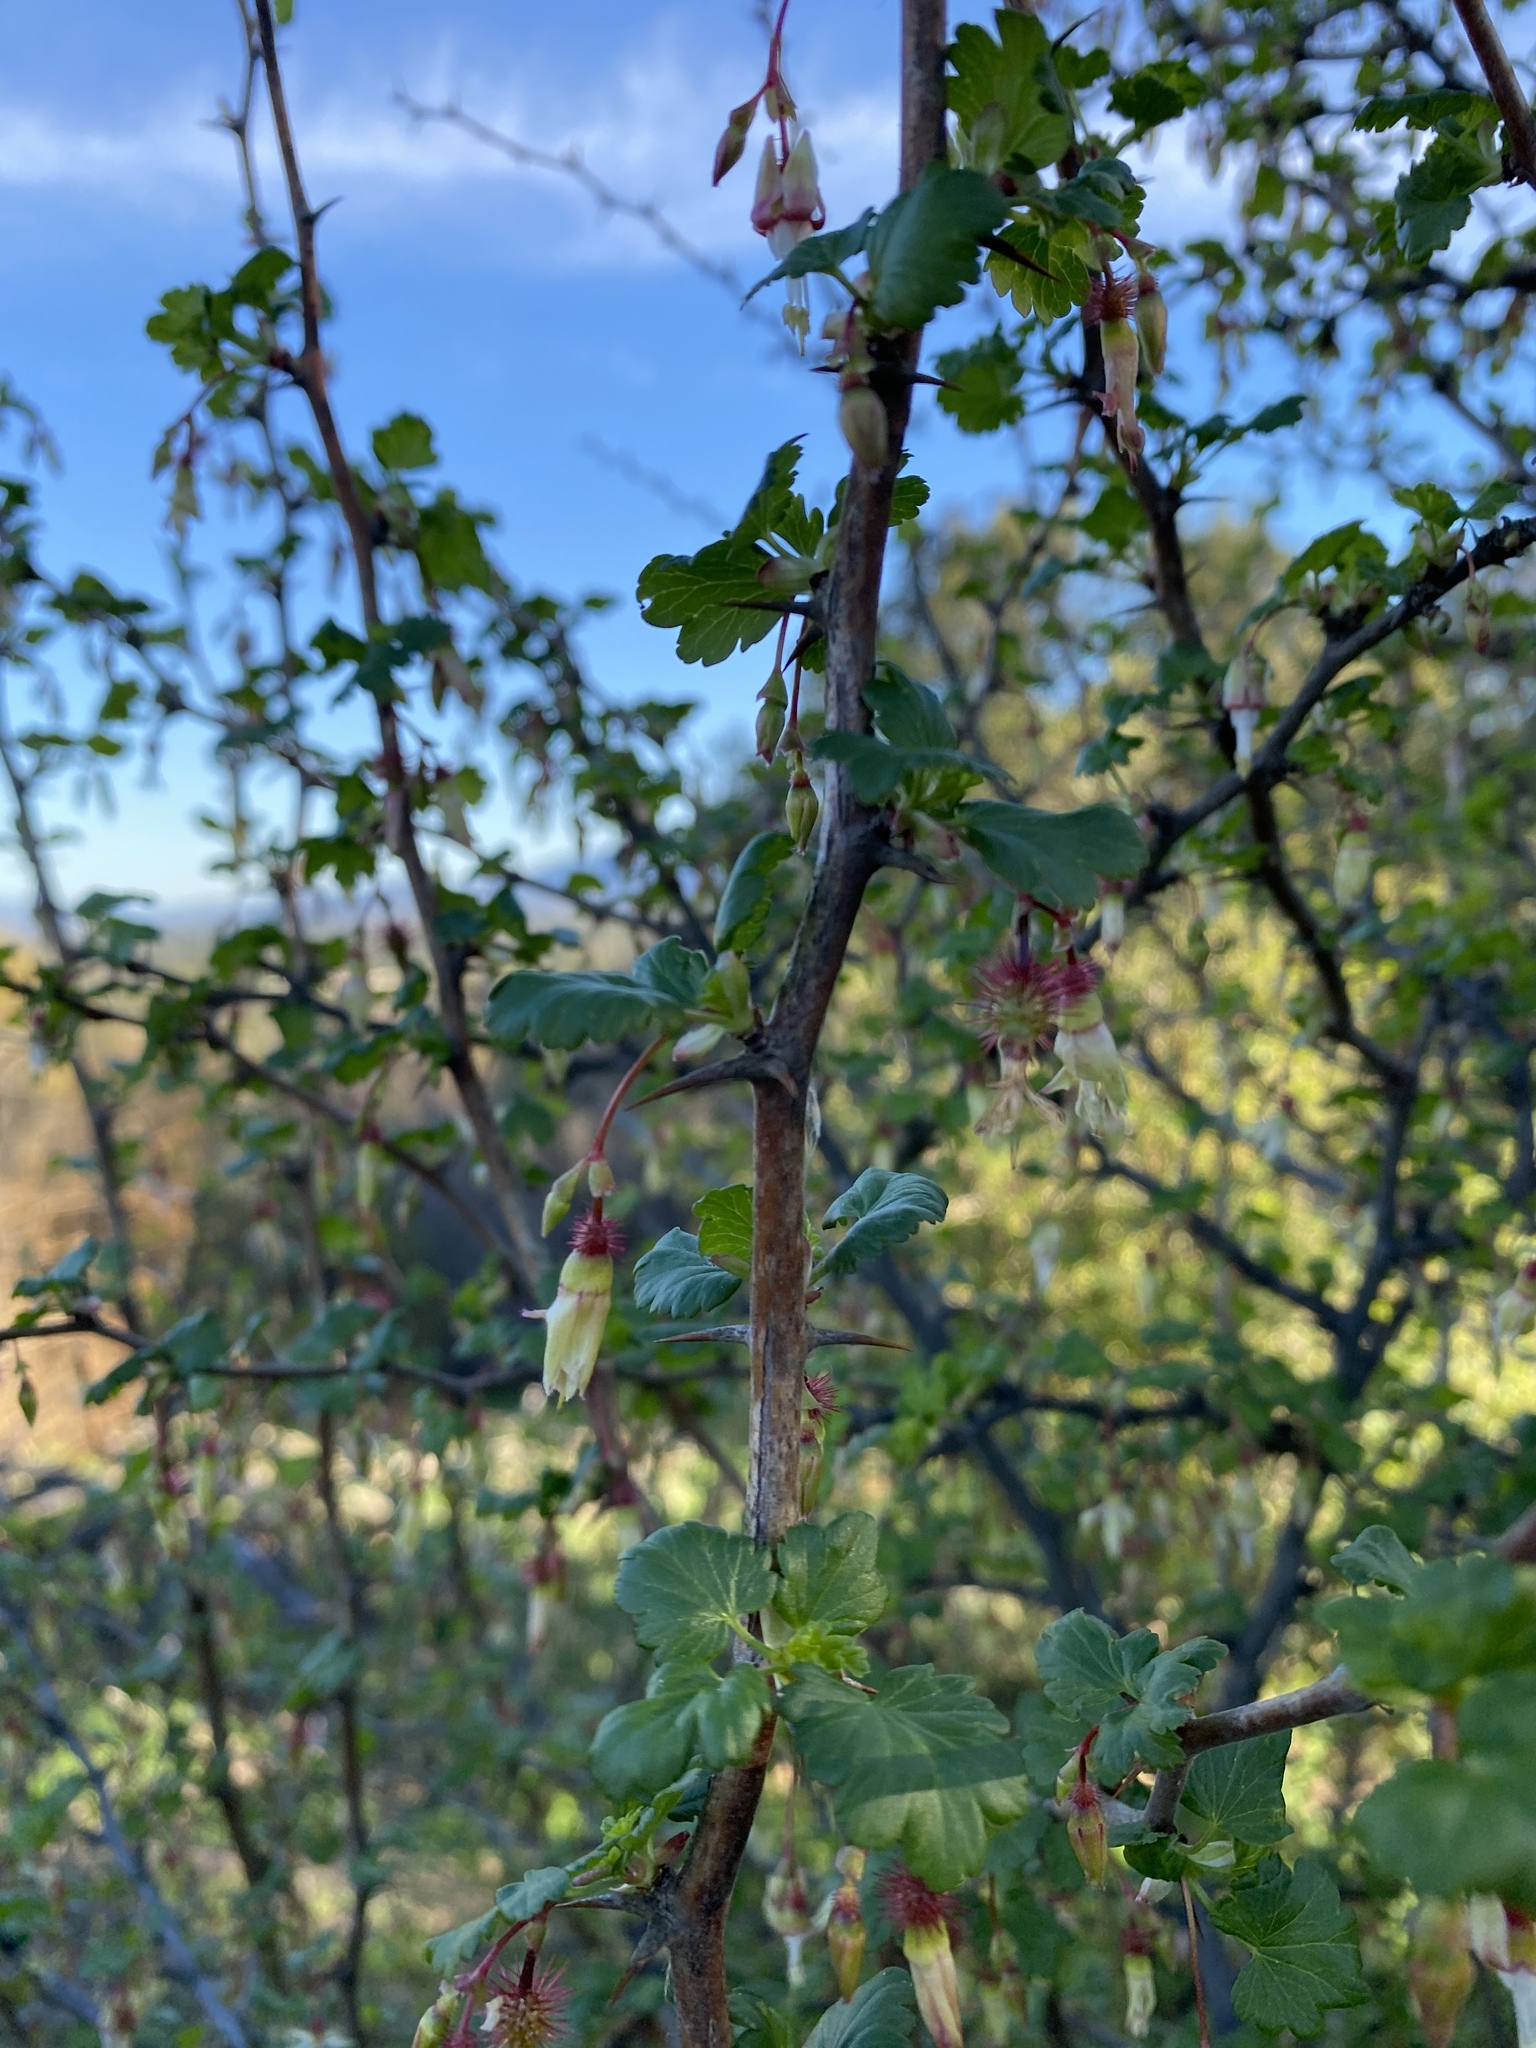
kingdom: Plantae
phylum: Tracheophyta
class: Magnoliopsida
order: Saxifragales
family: Grossulariaceae
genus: Ribes
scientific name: Ribes californicum
